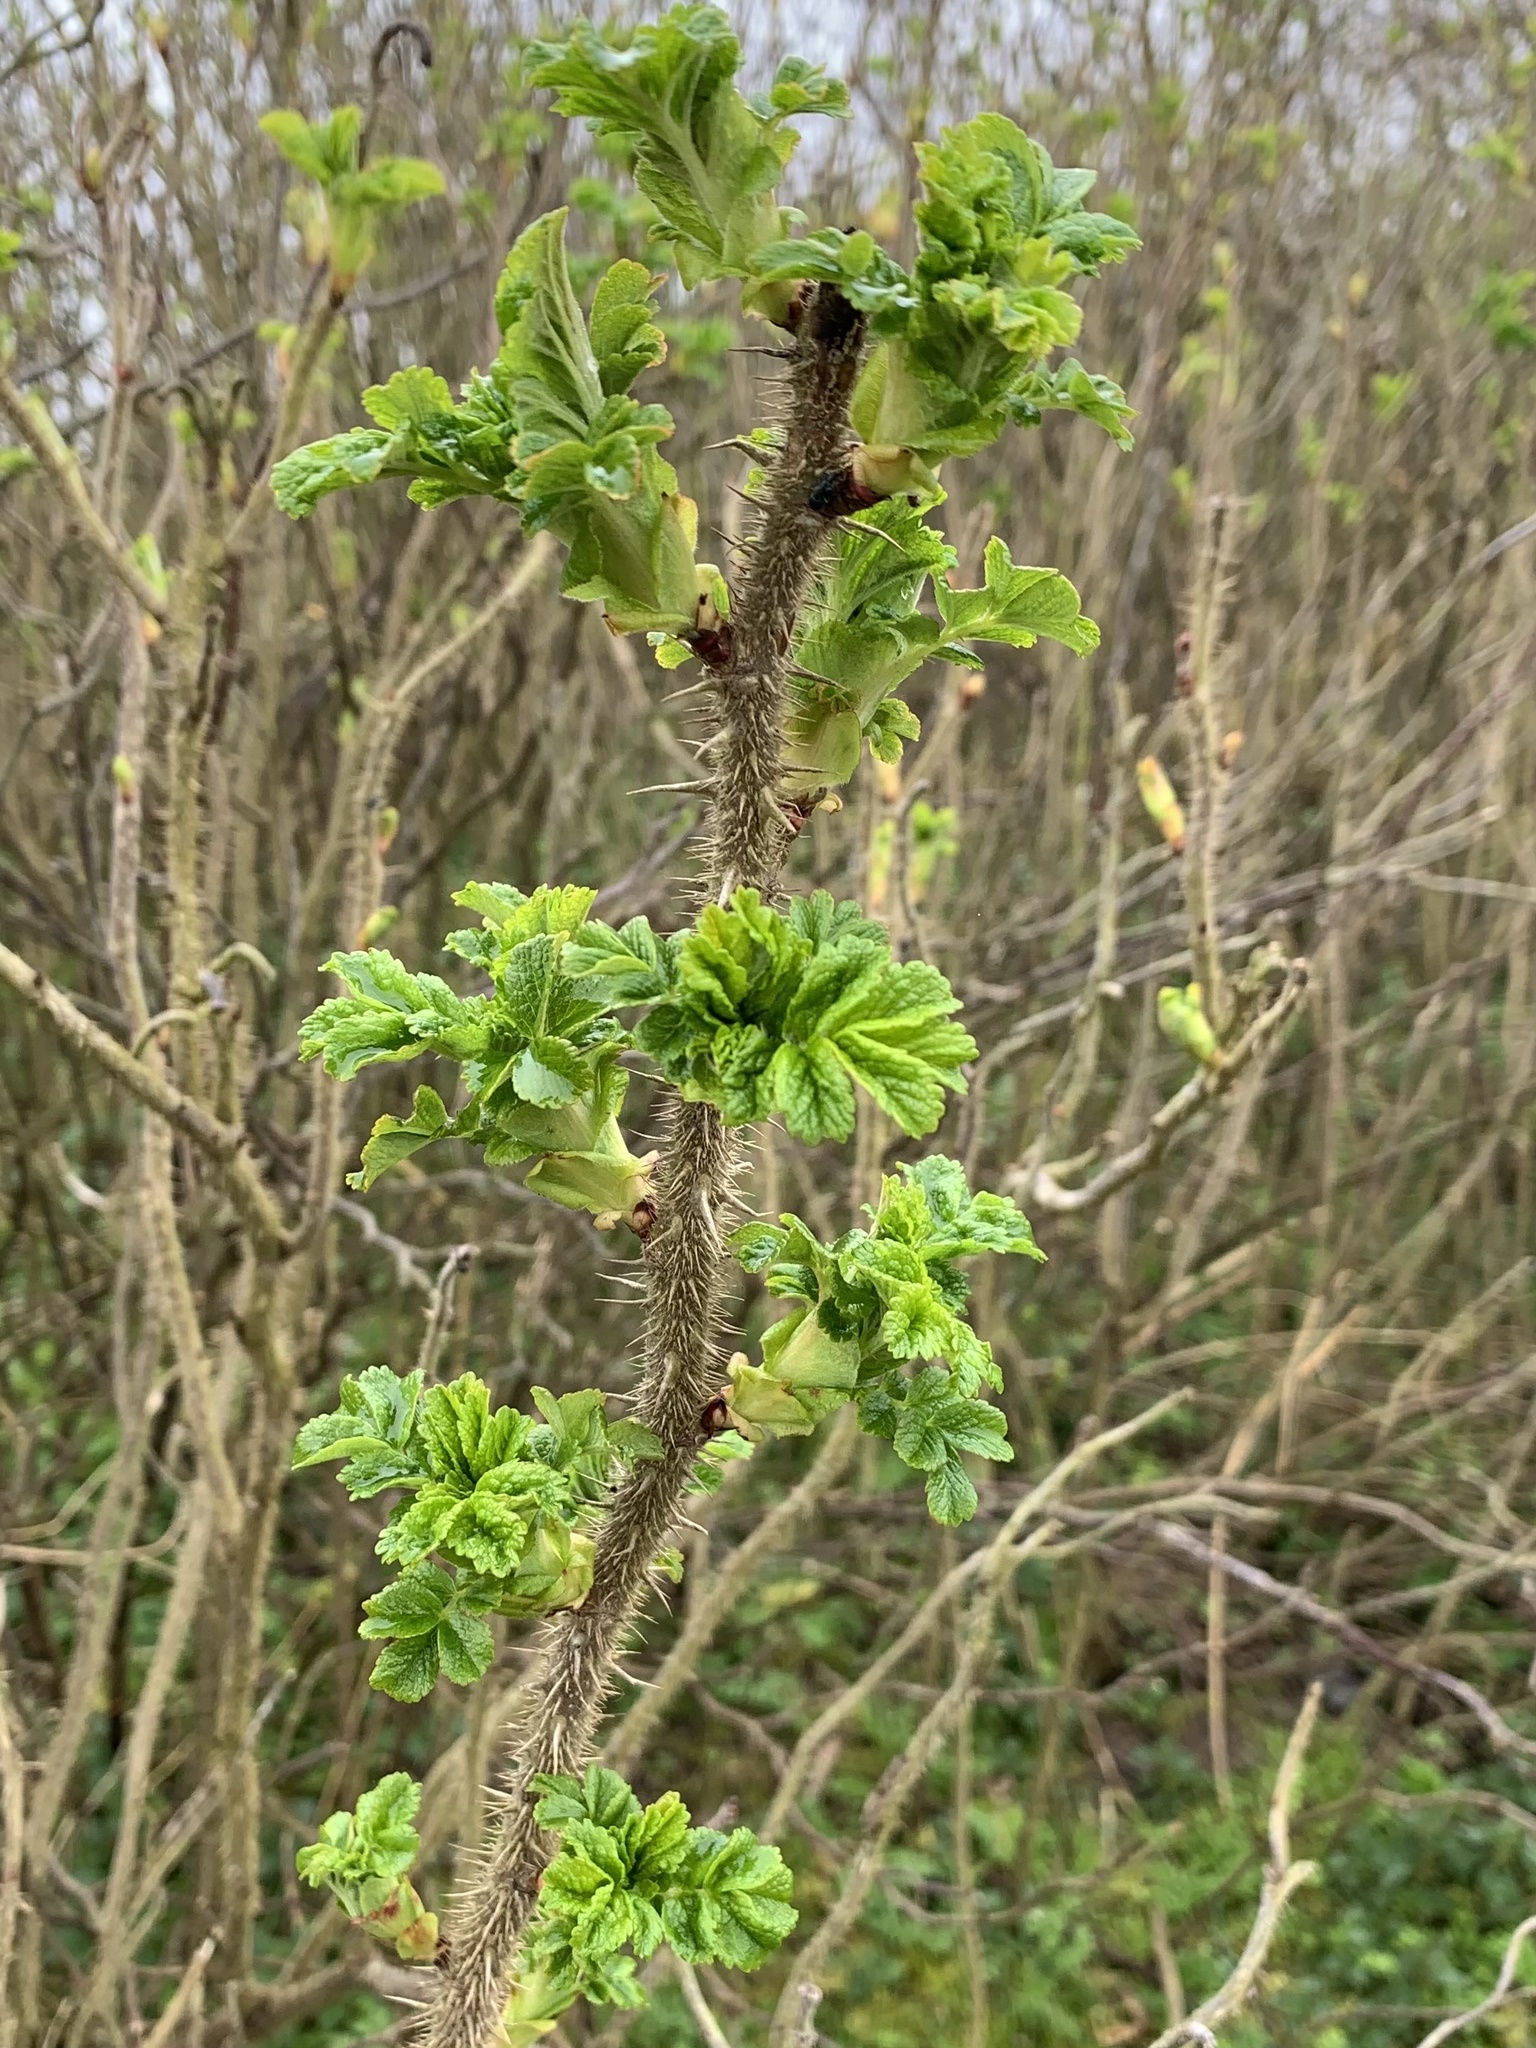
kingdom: Plantae
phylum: Tracheophyta
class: Magnoliopsida
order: Rosales
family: Rosaceae
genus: Rosa
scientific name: Rosa rugosa
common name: Japanese rose
